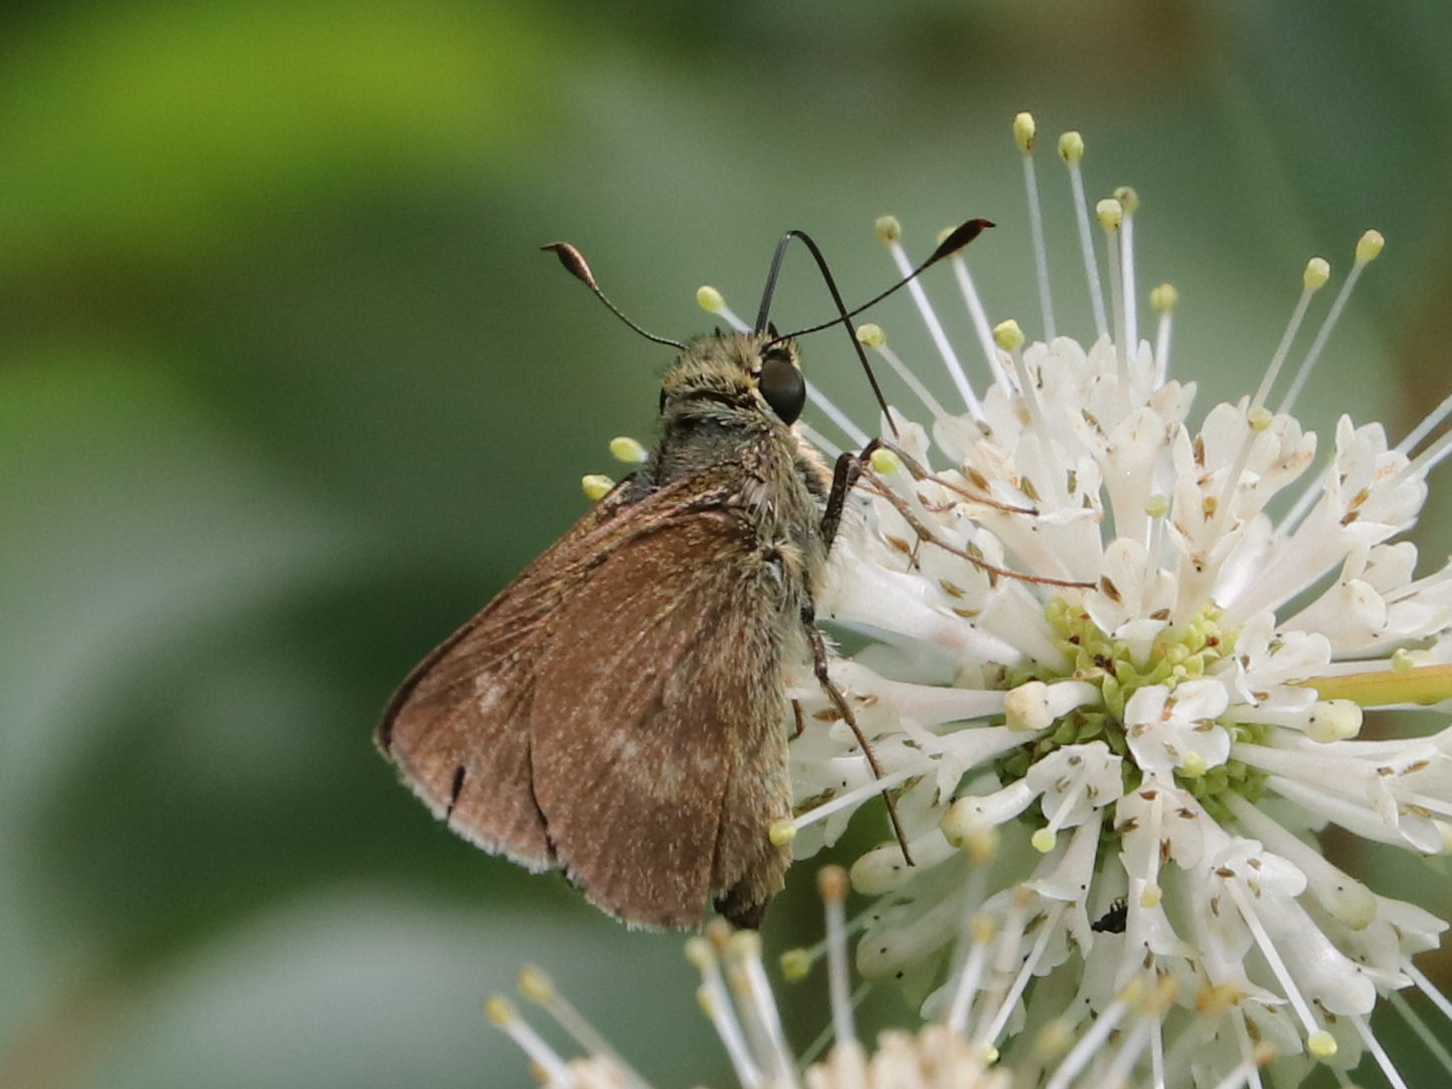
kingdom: Animalia
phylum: Arthropoda
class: Insecta
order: Lepidoptera
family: Hesperiidae
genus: Polites
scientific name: Polites egeremet
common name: Northern broken-dash
